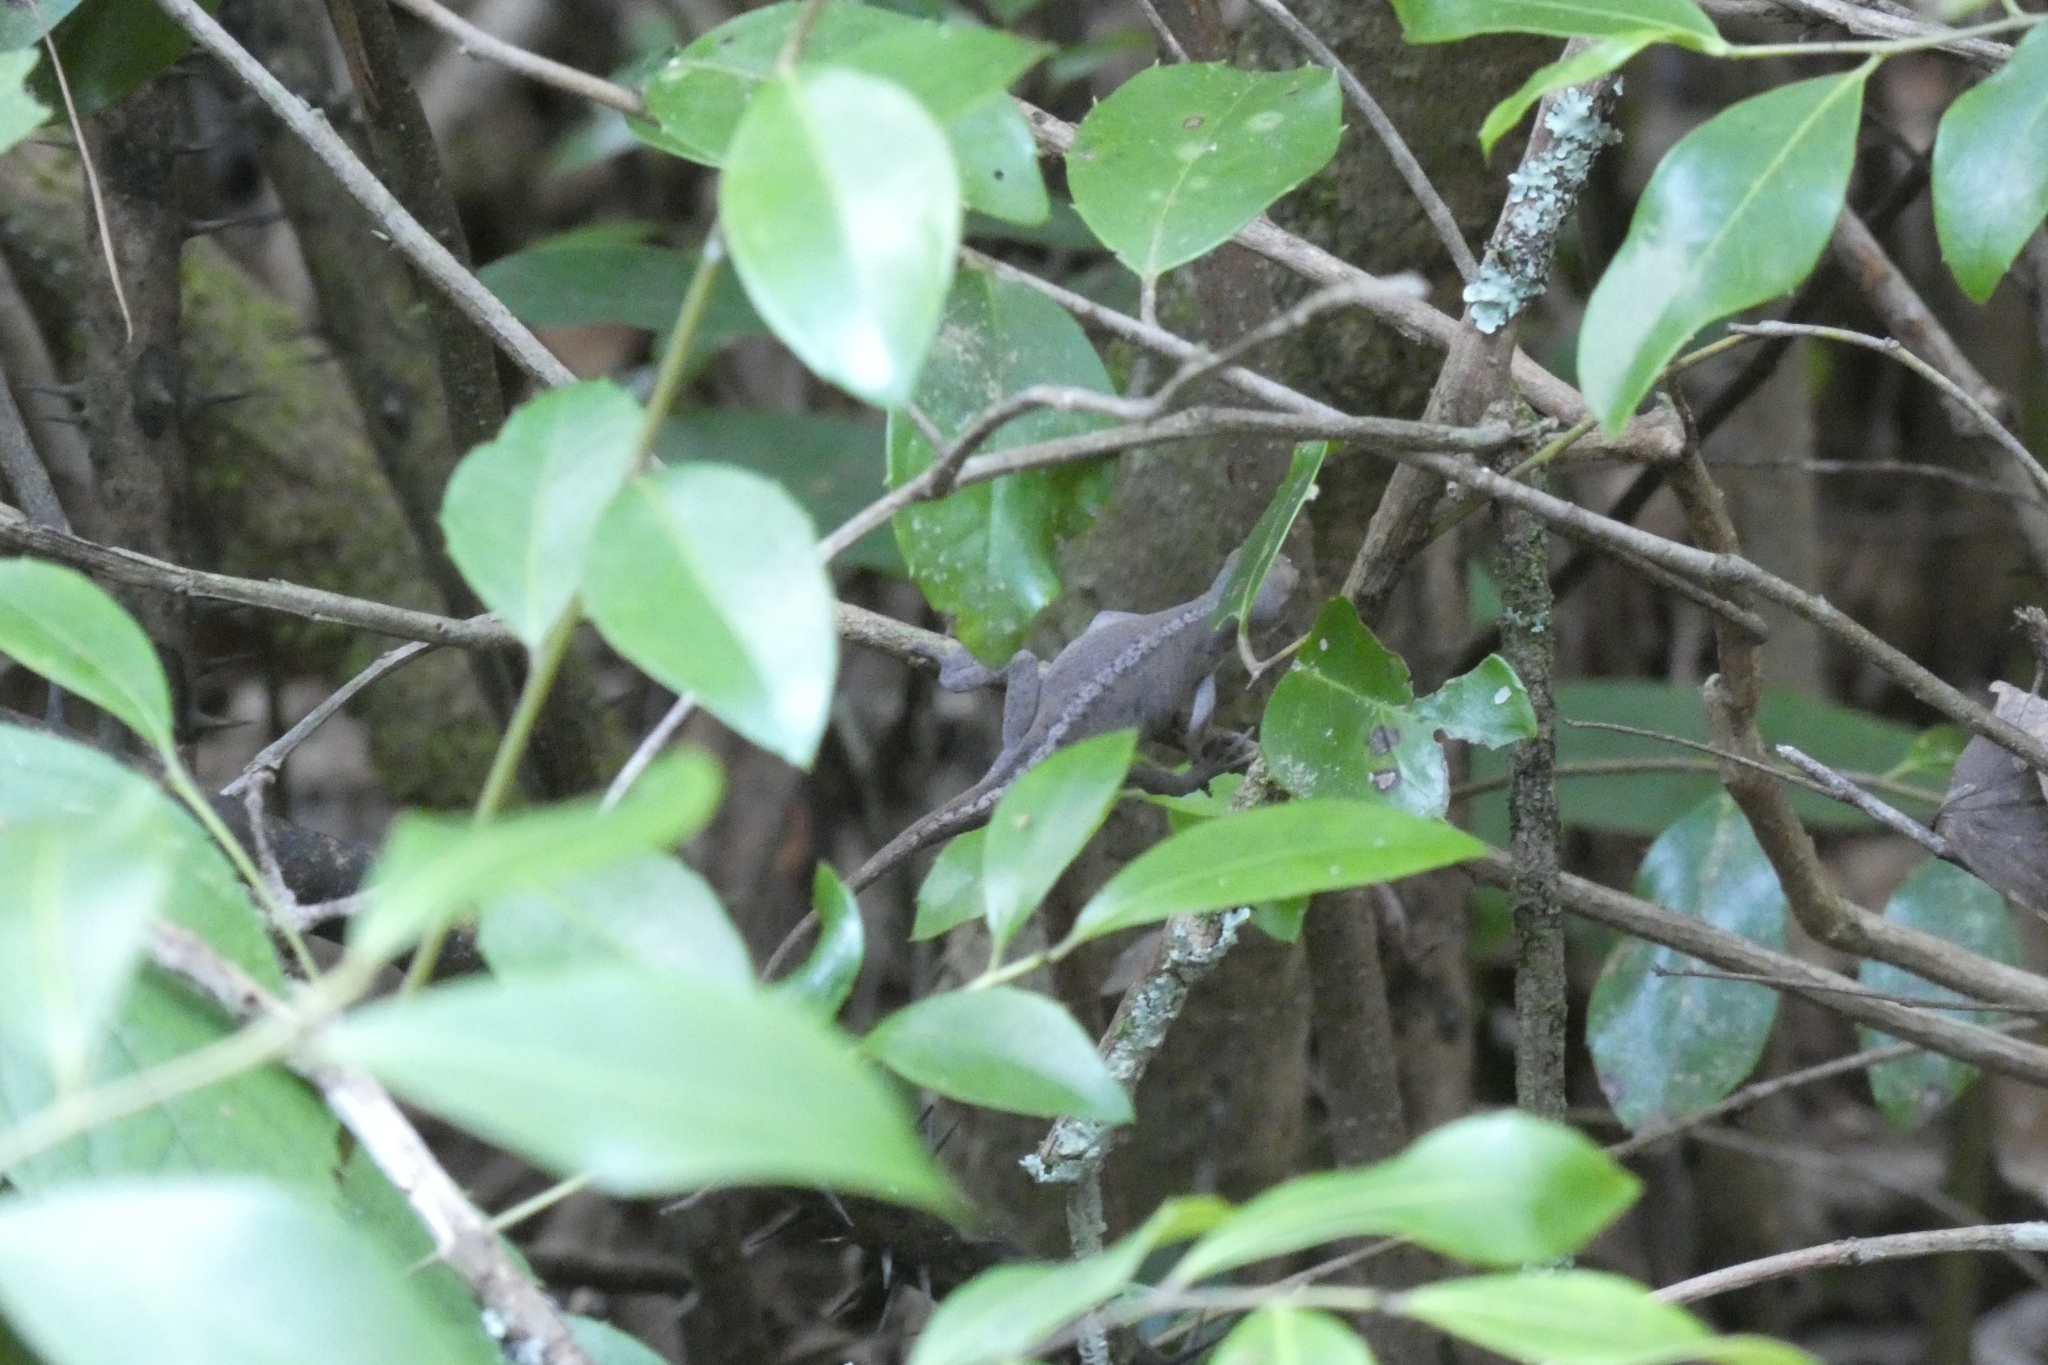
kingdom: Animalia
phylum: Chordata
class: Squamata
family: Dactyloidae
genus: Anolis
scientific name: Anolis carolinensis
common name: Green anole
